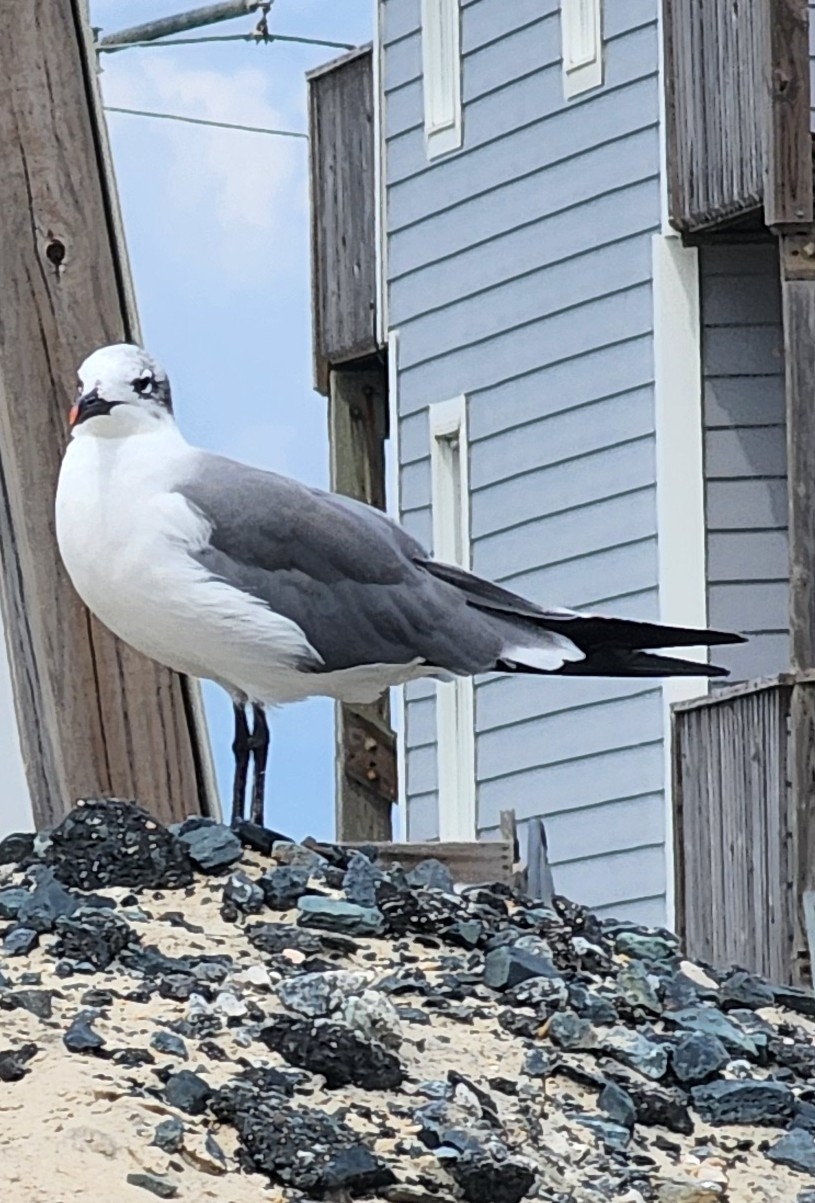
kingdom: Animalia
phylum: Chordata
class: Aves
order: Charadriiformes
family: Laridae
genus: Leucophaeus
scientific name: Leucophaeus atricilla
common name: Laughing gull
